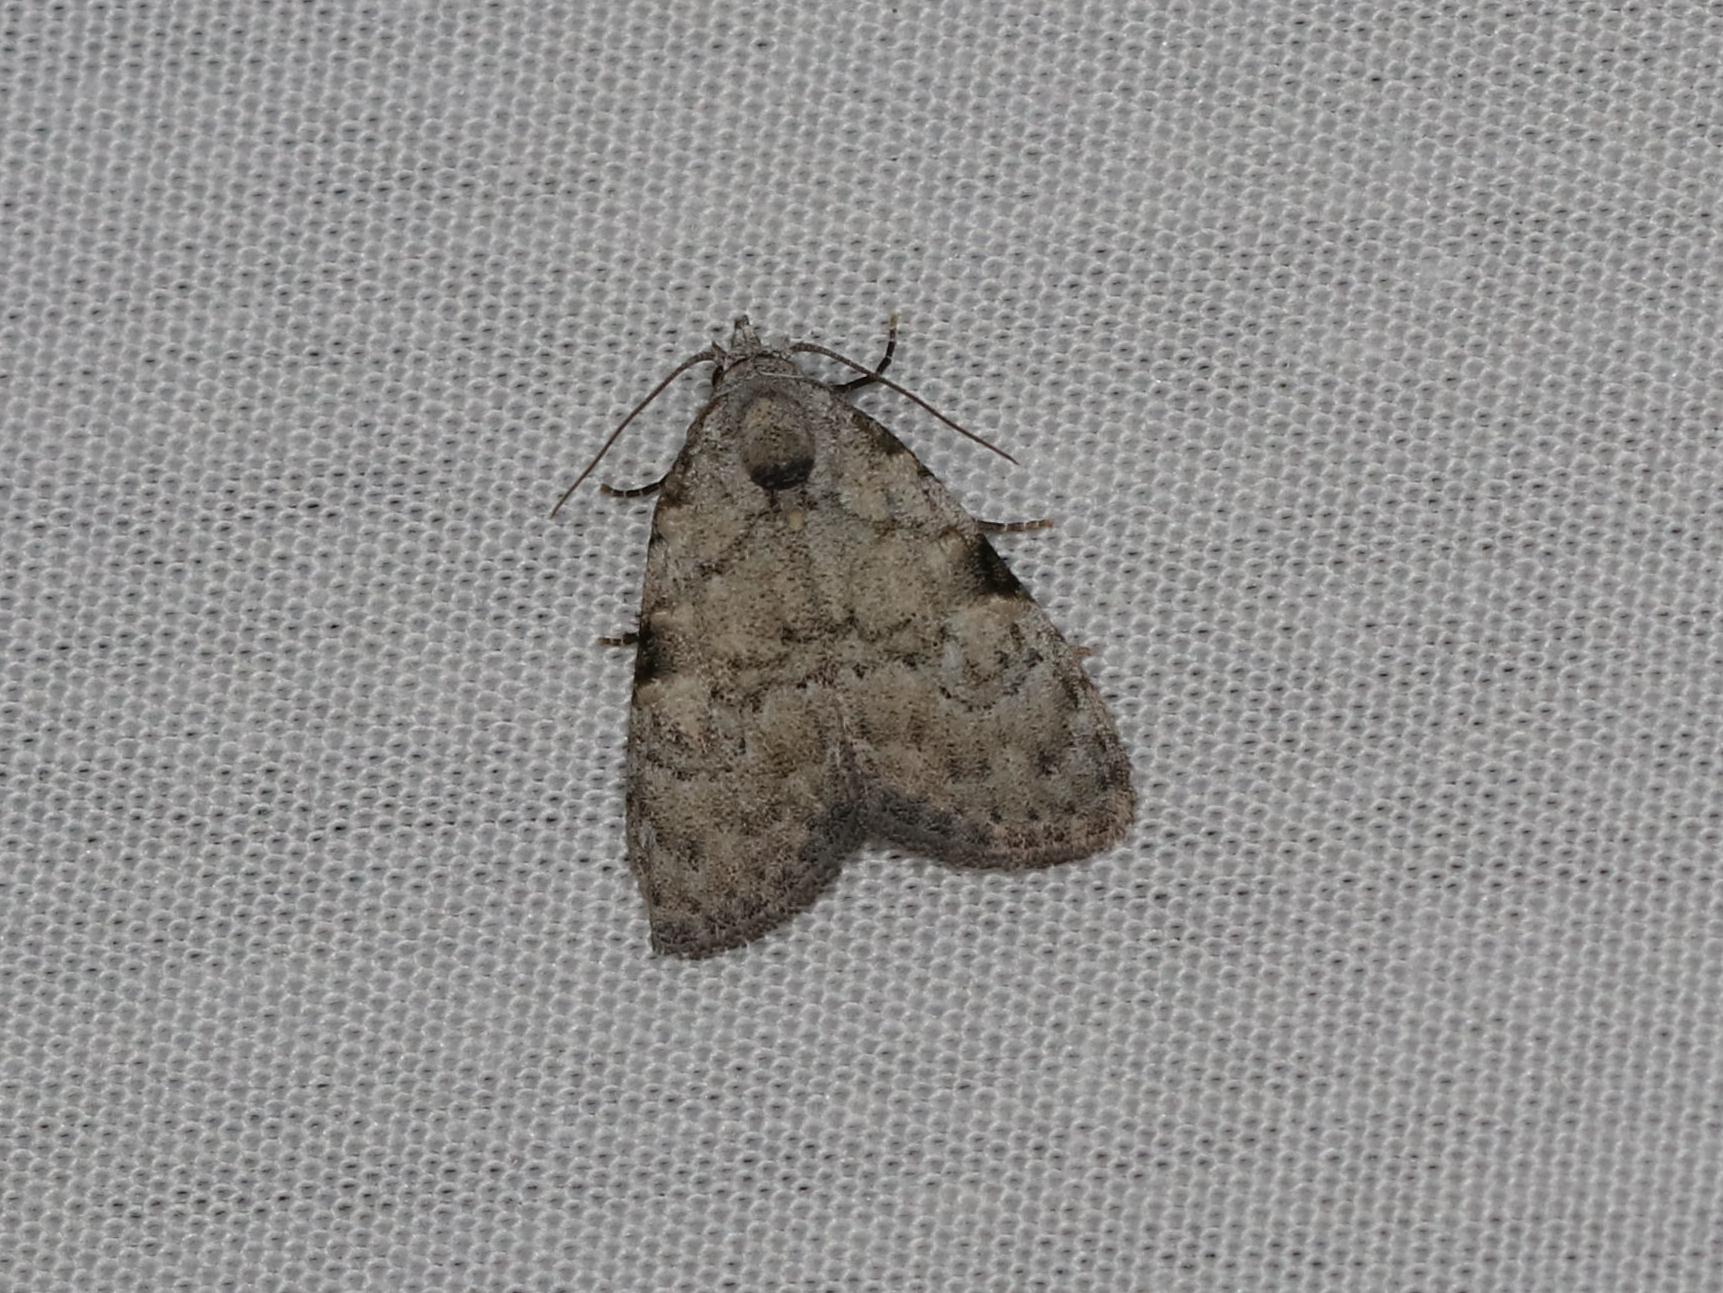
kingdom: Animalia
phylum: Arthropoda
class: Insecta
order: Lepidoptera
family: Nolidae
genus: Meganola
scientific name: Meganola minuscula
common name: Confused meganola moth
